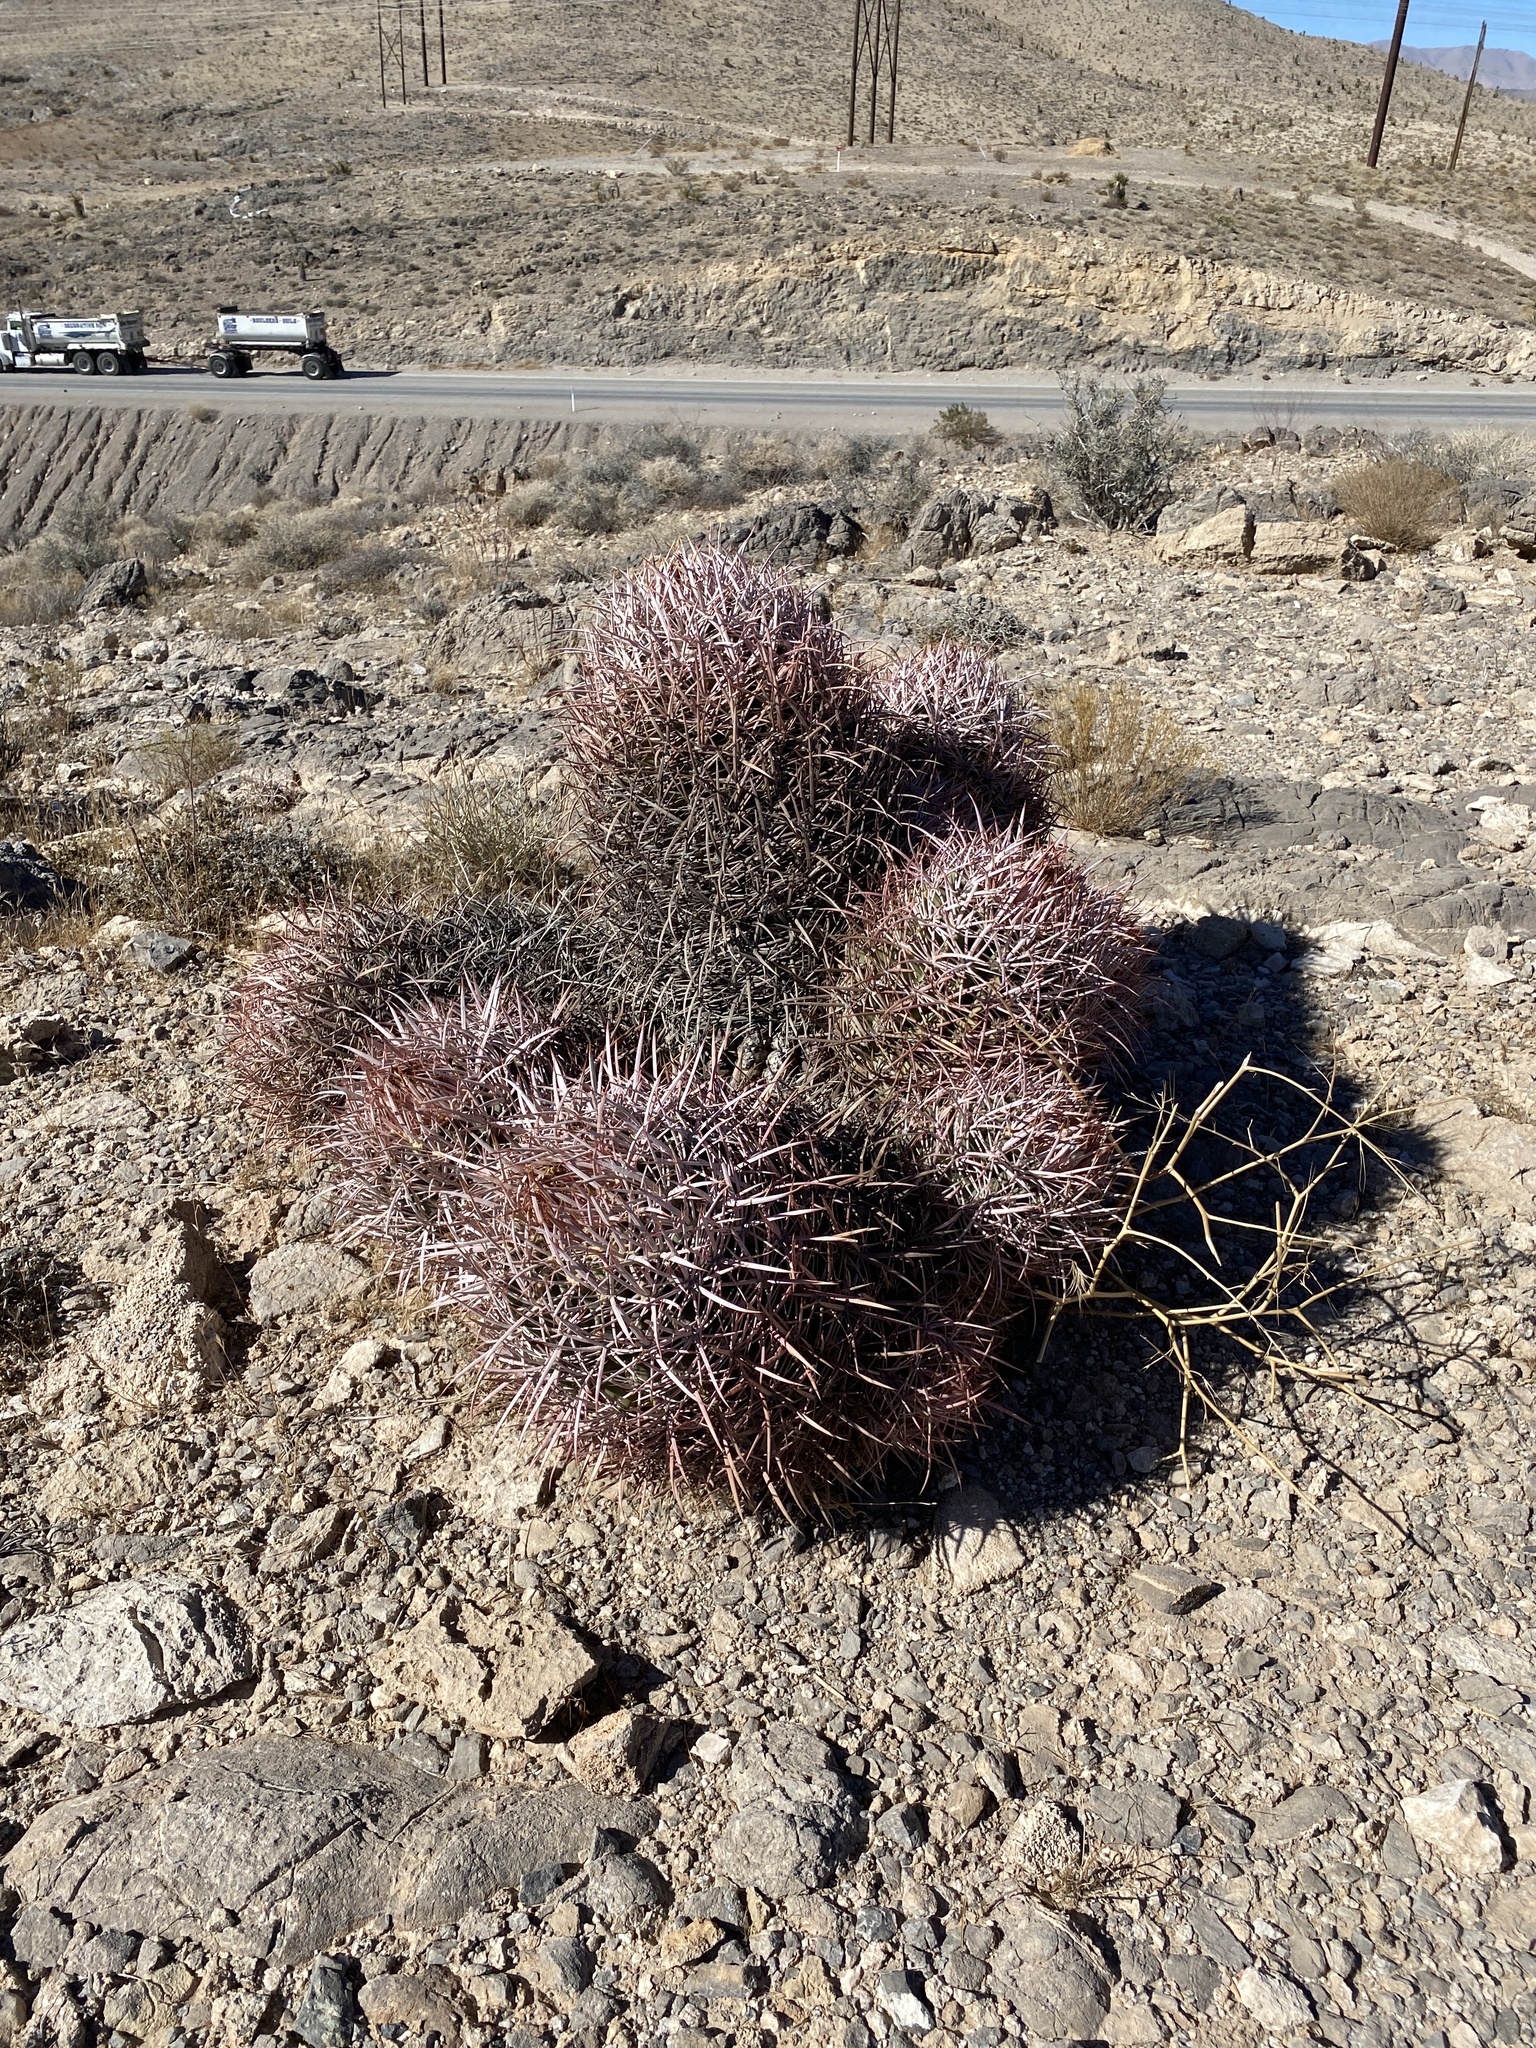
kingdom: Plantae
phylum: Tracheophyta
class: Magnoliopsida
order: Caryophyllales
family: Cactaceae
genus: Echinocactus
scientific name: Echinocactus polycephalus
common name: Cottontop cactus
